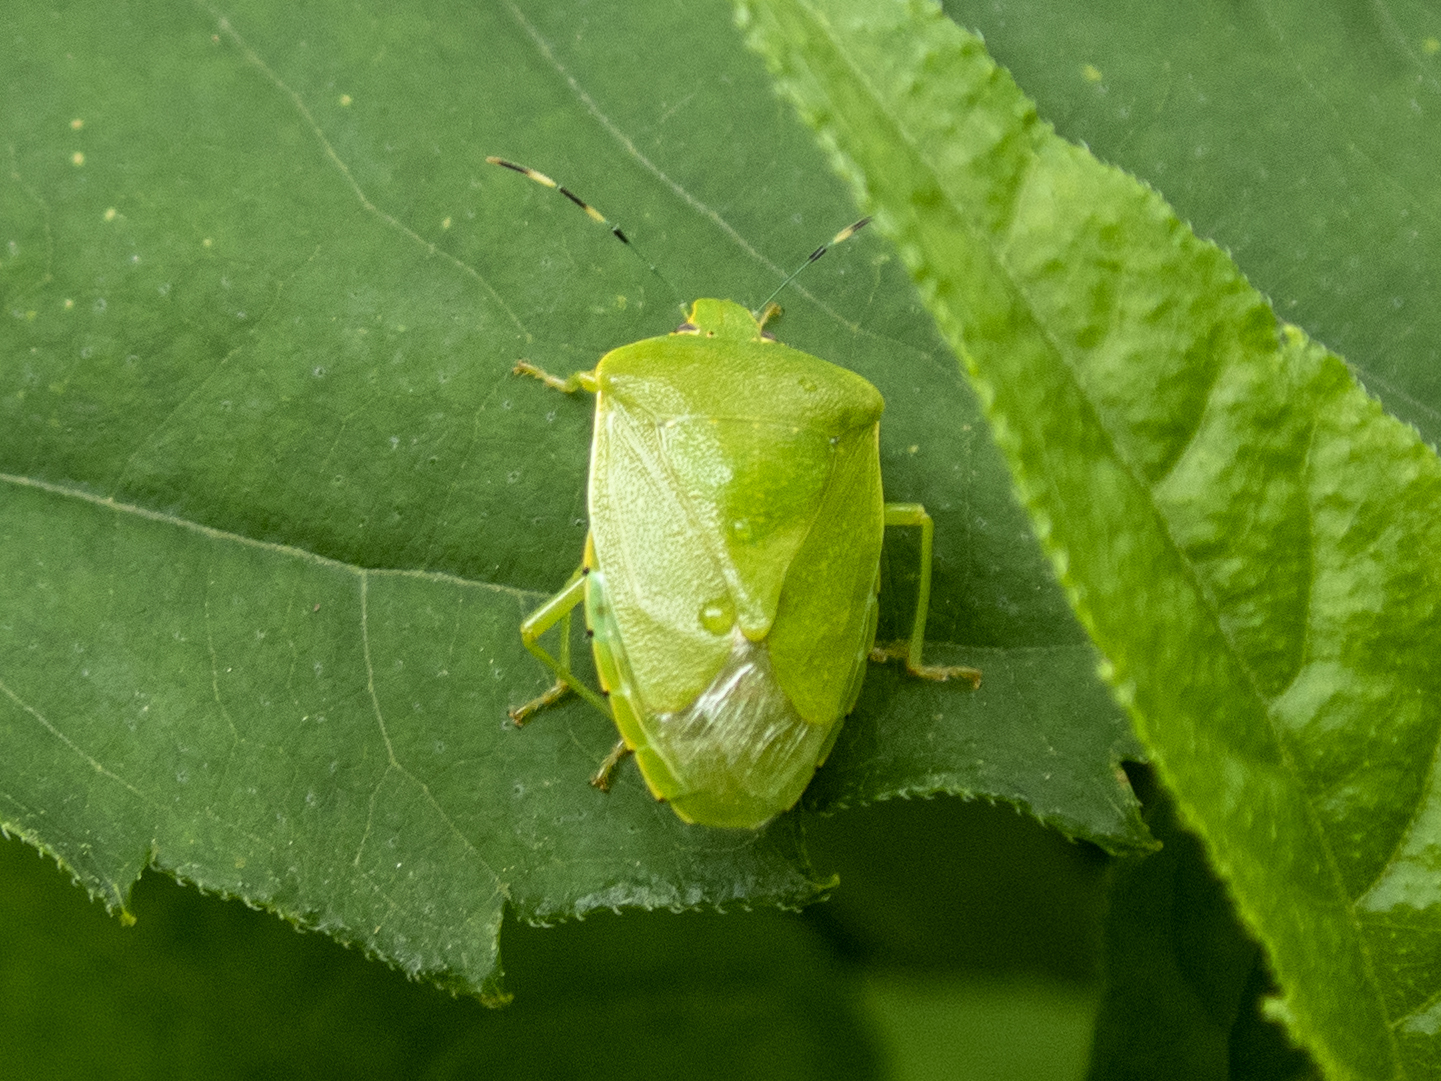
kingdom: Animalia
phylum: Arthropoda
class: Insecta
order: Hemiptera
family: Pentatomidae
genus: Chinavia
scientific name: Chinavia hilaris
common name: Green stink bug
